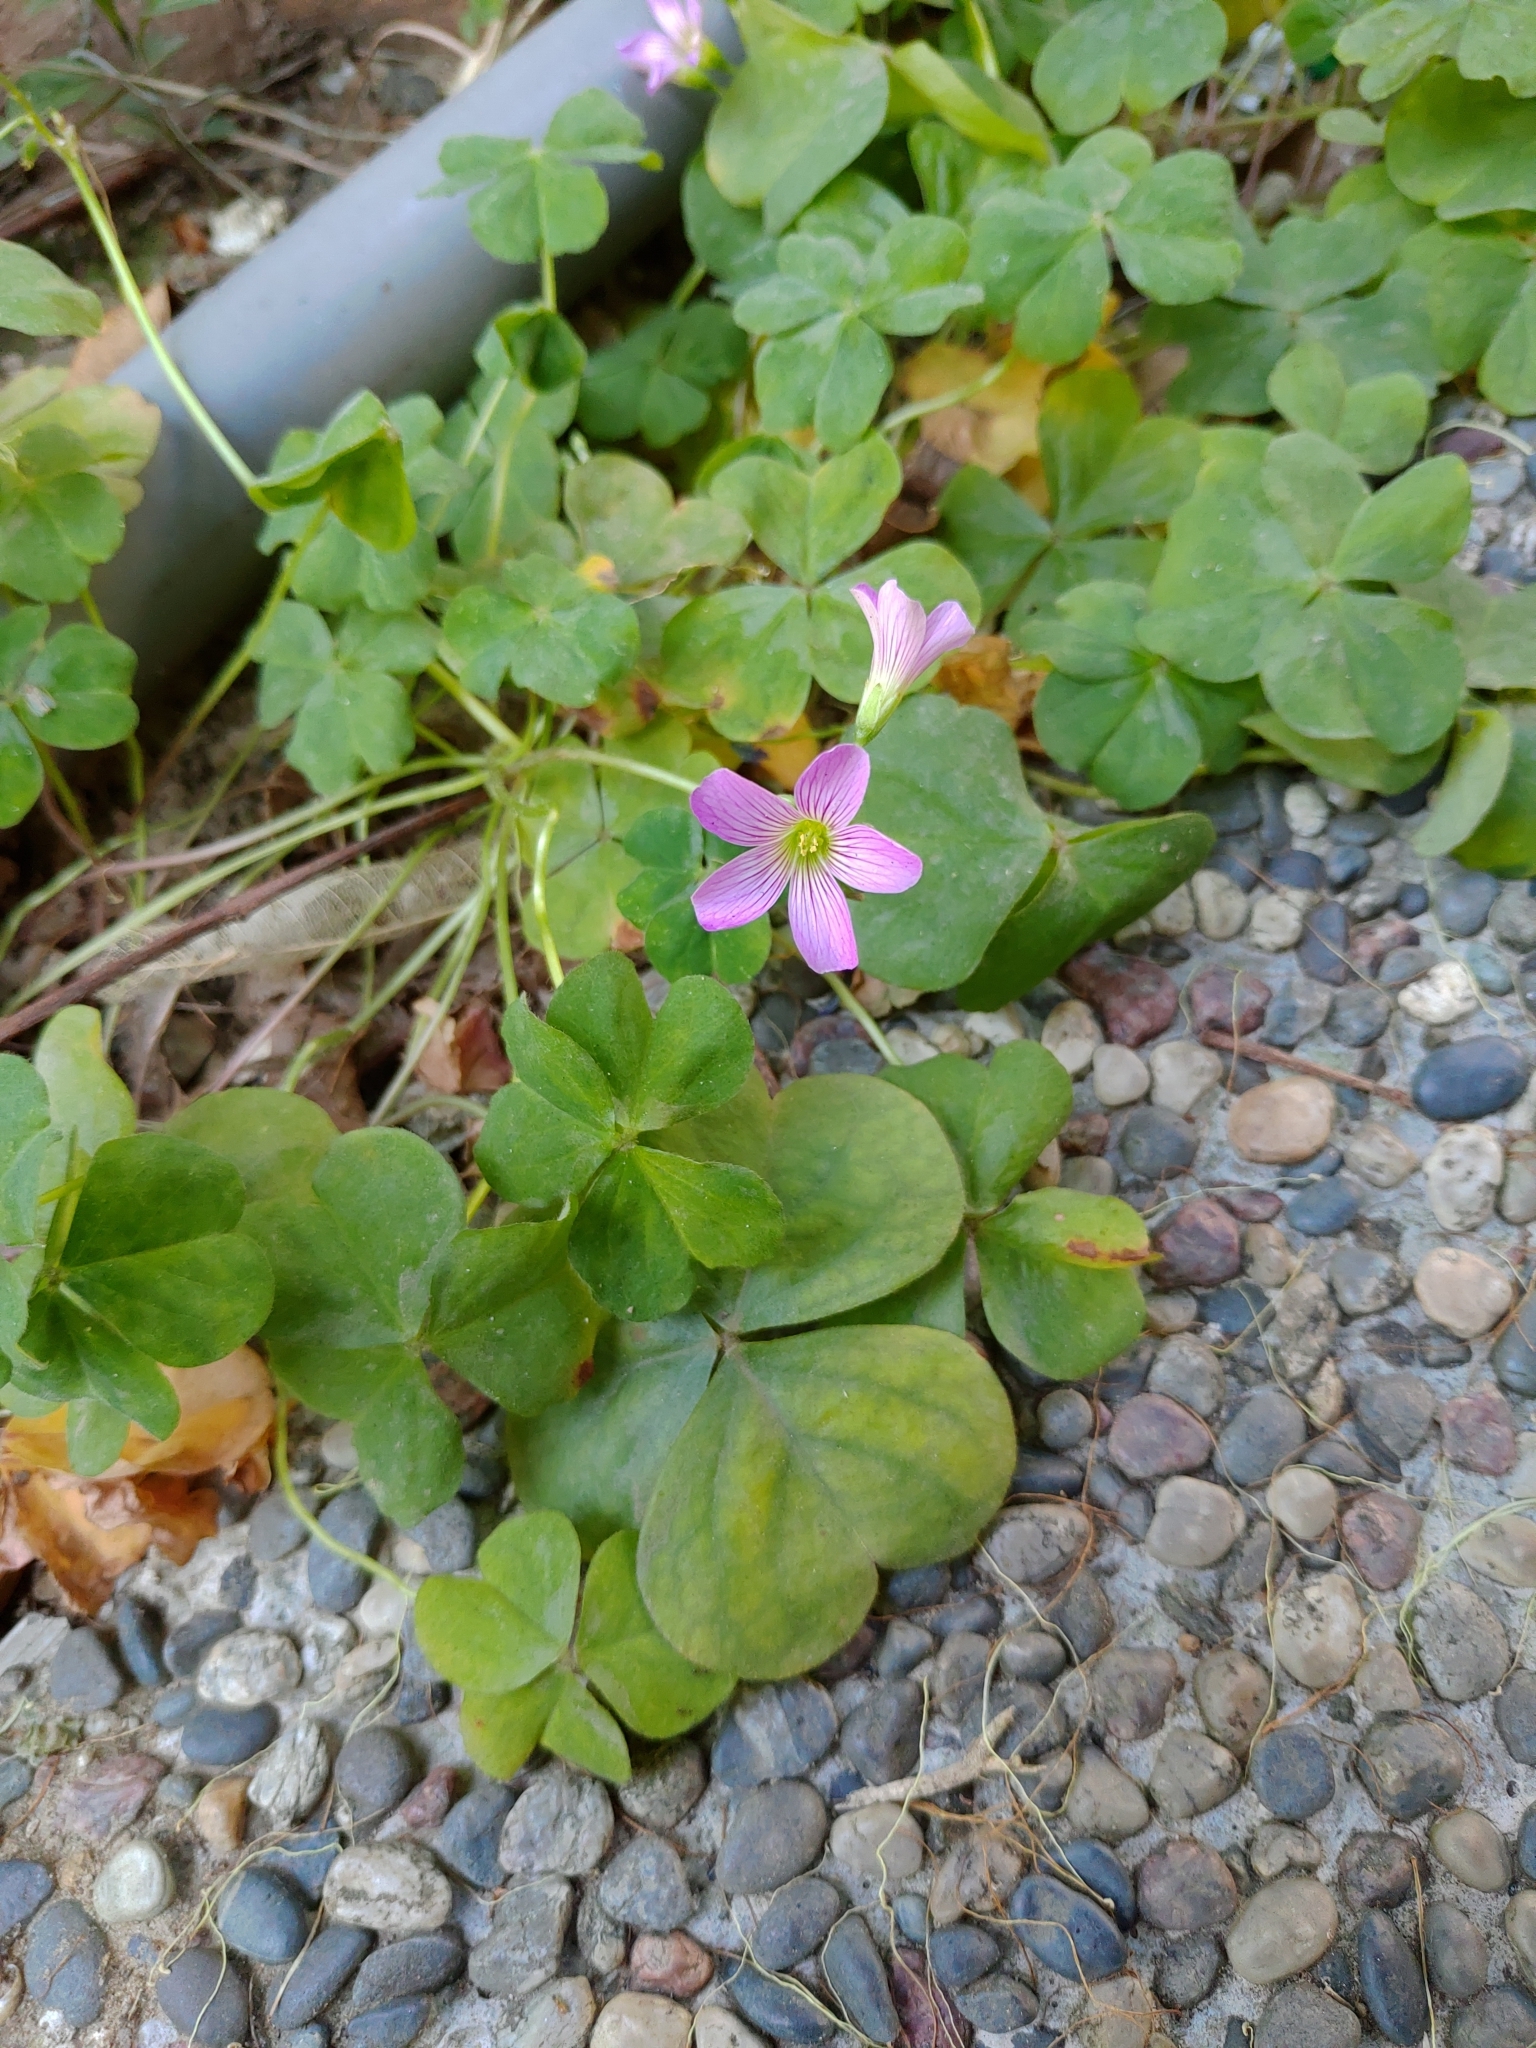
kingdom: Plantae
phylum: Tracheophyta
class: Magnoliopsida
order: Oxalidales
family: Oxalidaceae
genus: Oxalis
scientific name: Oxalis debilis
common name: Large-flowered pink-sorrel
